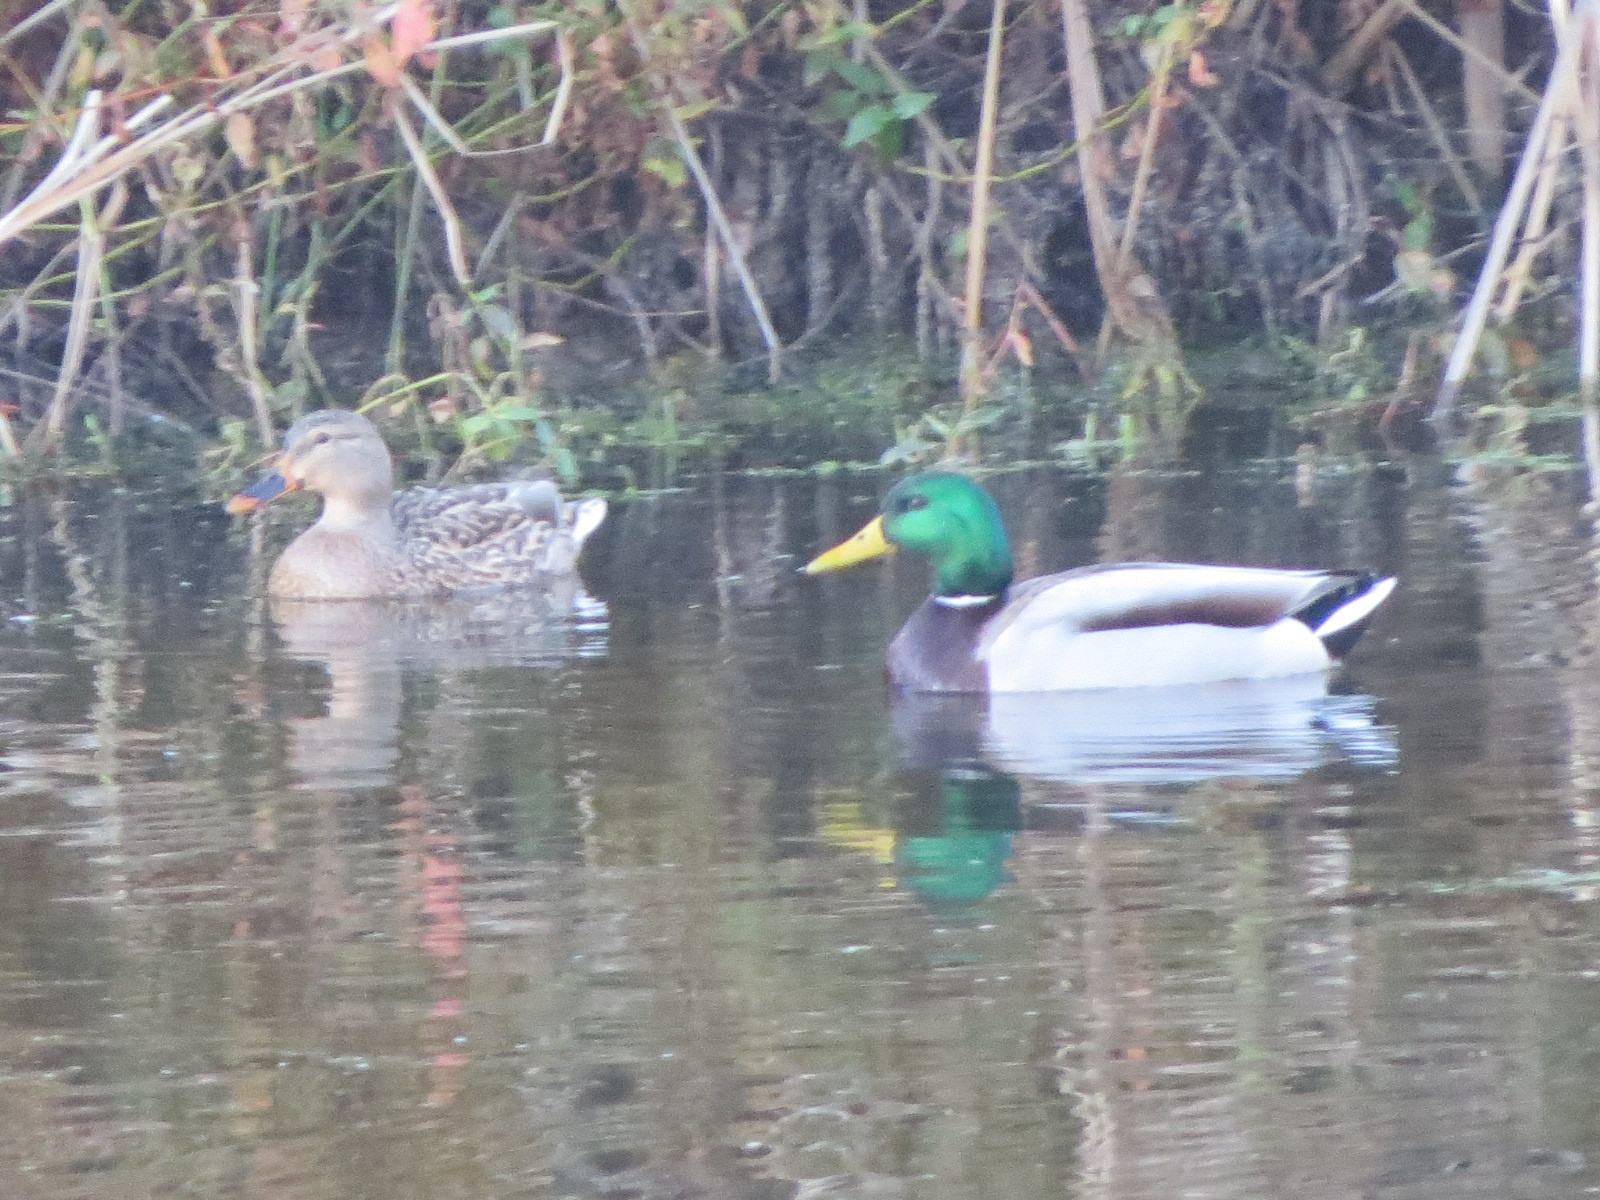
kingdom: Animalia
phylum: Chordata
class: Aves
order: Anseriformes
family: Anatidae
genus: Anas
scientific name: Anas platyrhynchos
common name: Mallard
